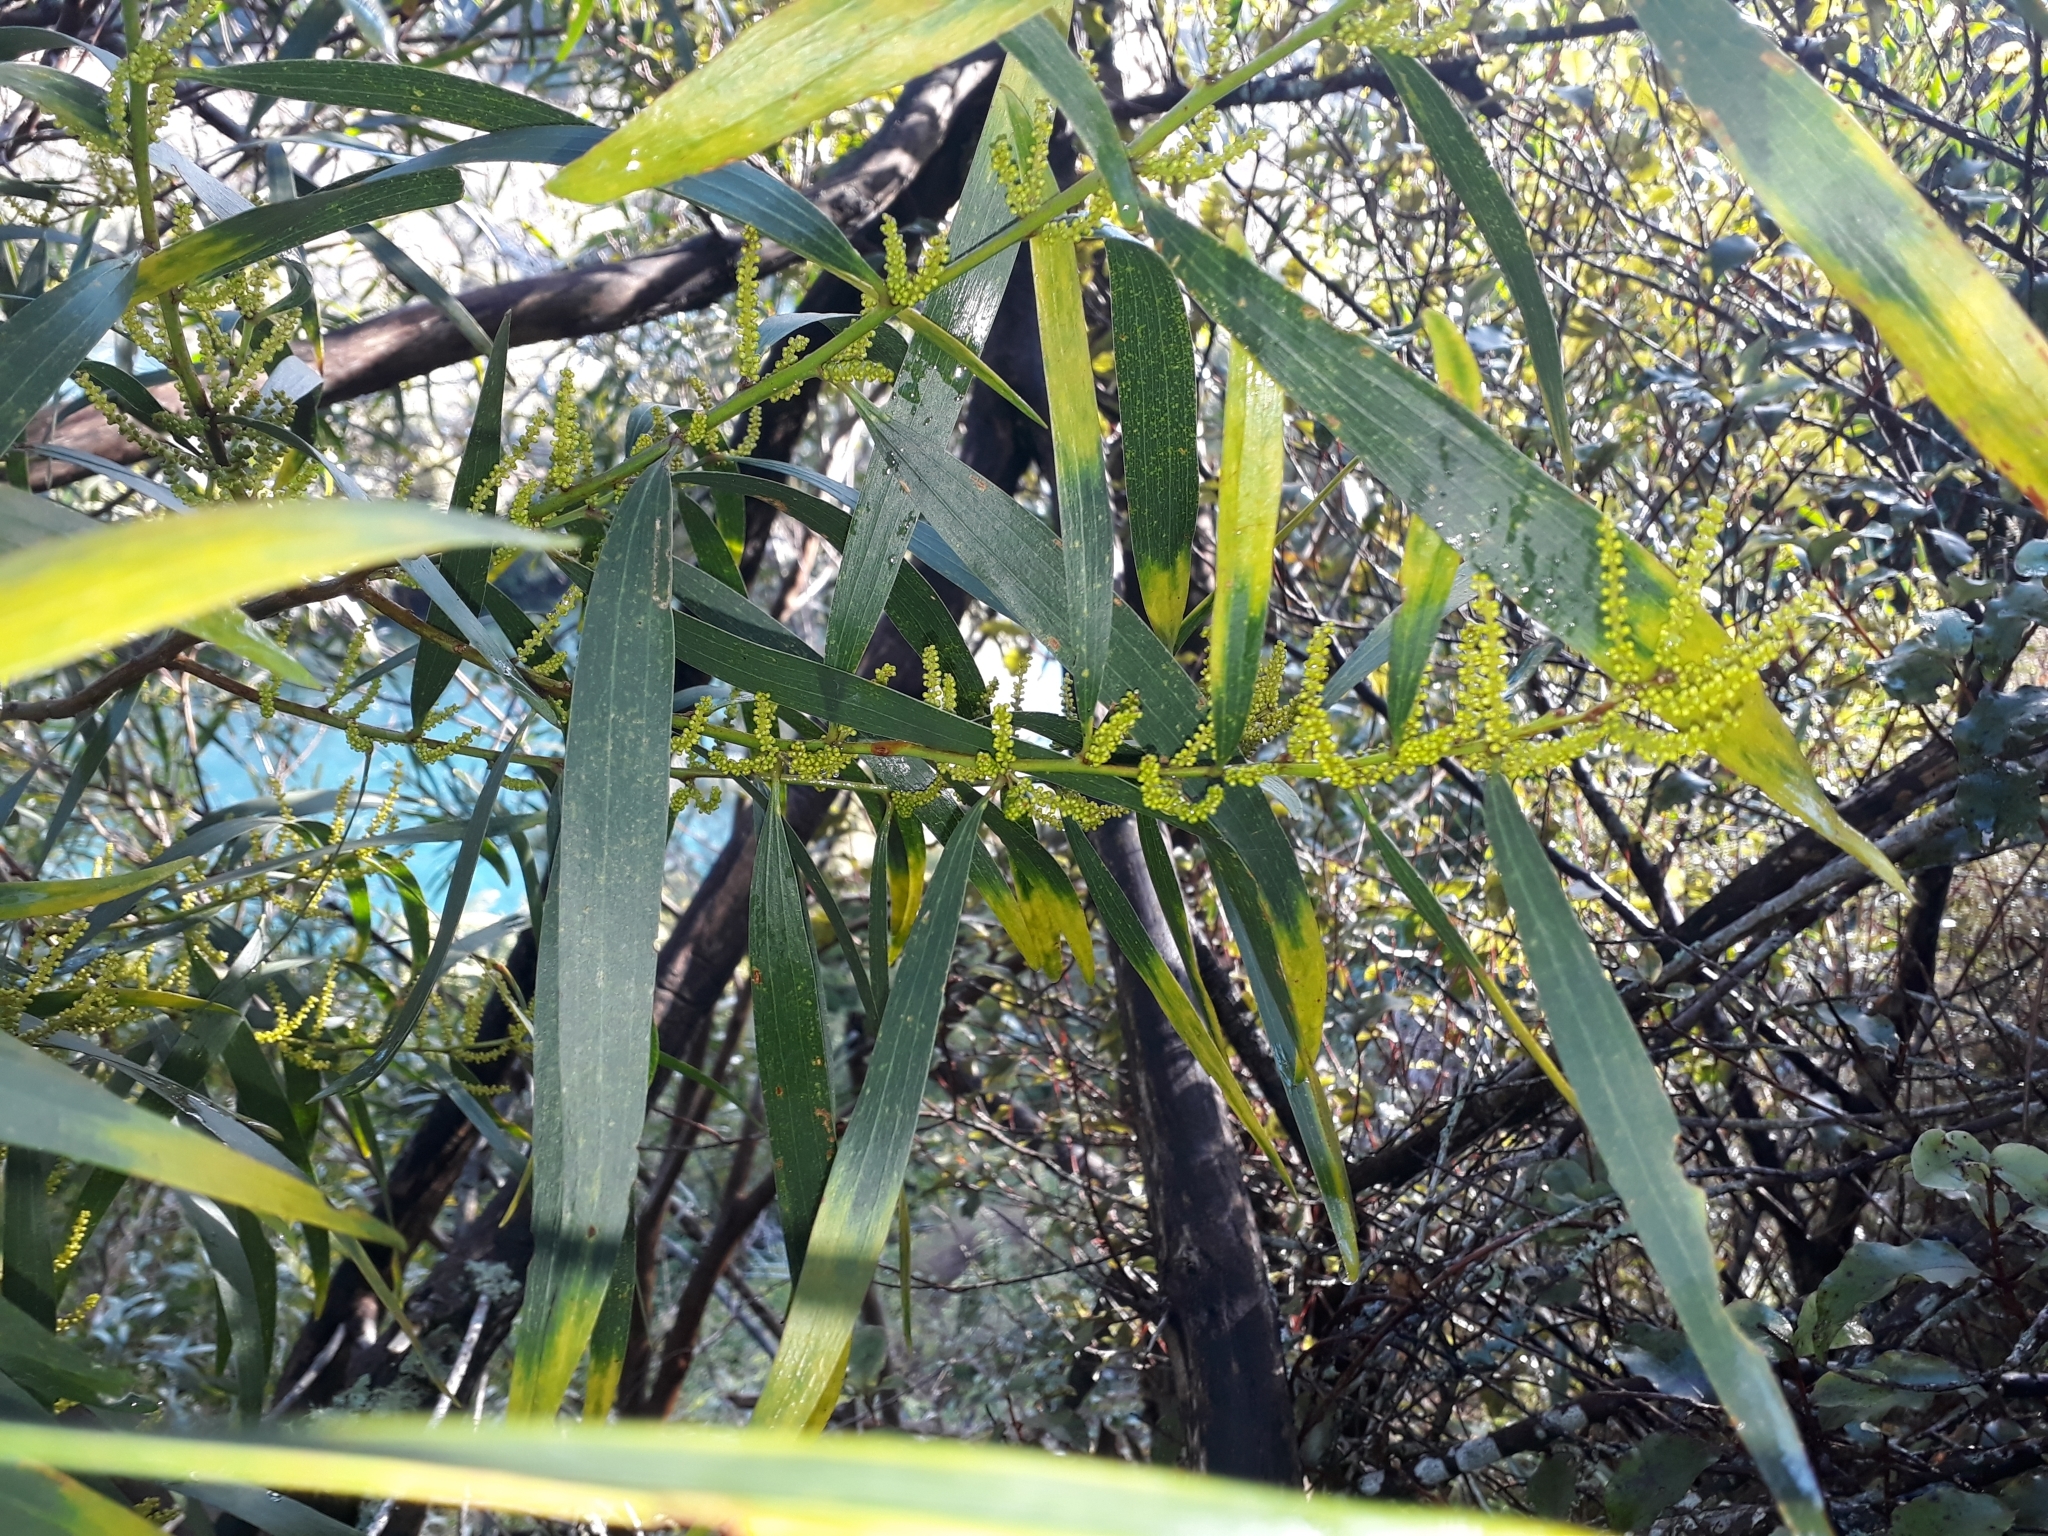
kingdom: Plantae
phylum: Tracheophyta
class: Magnoliopsida
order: Fabales
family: Fabaceae
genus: Acacia
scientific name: Acacia longifolia
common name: Sydney golden wattle
